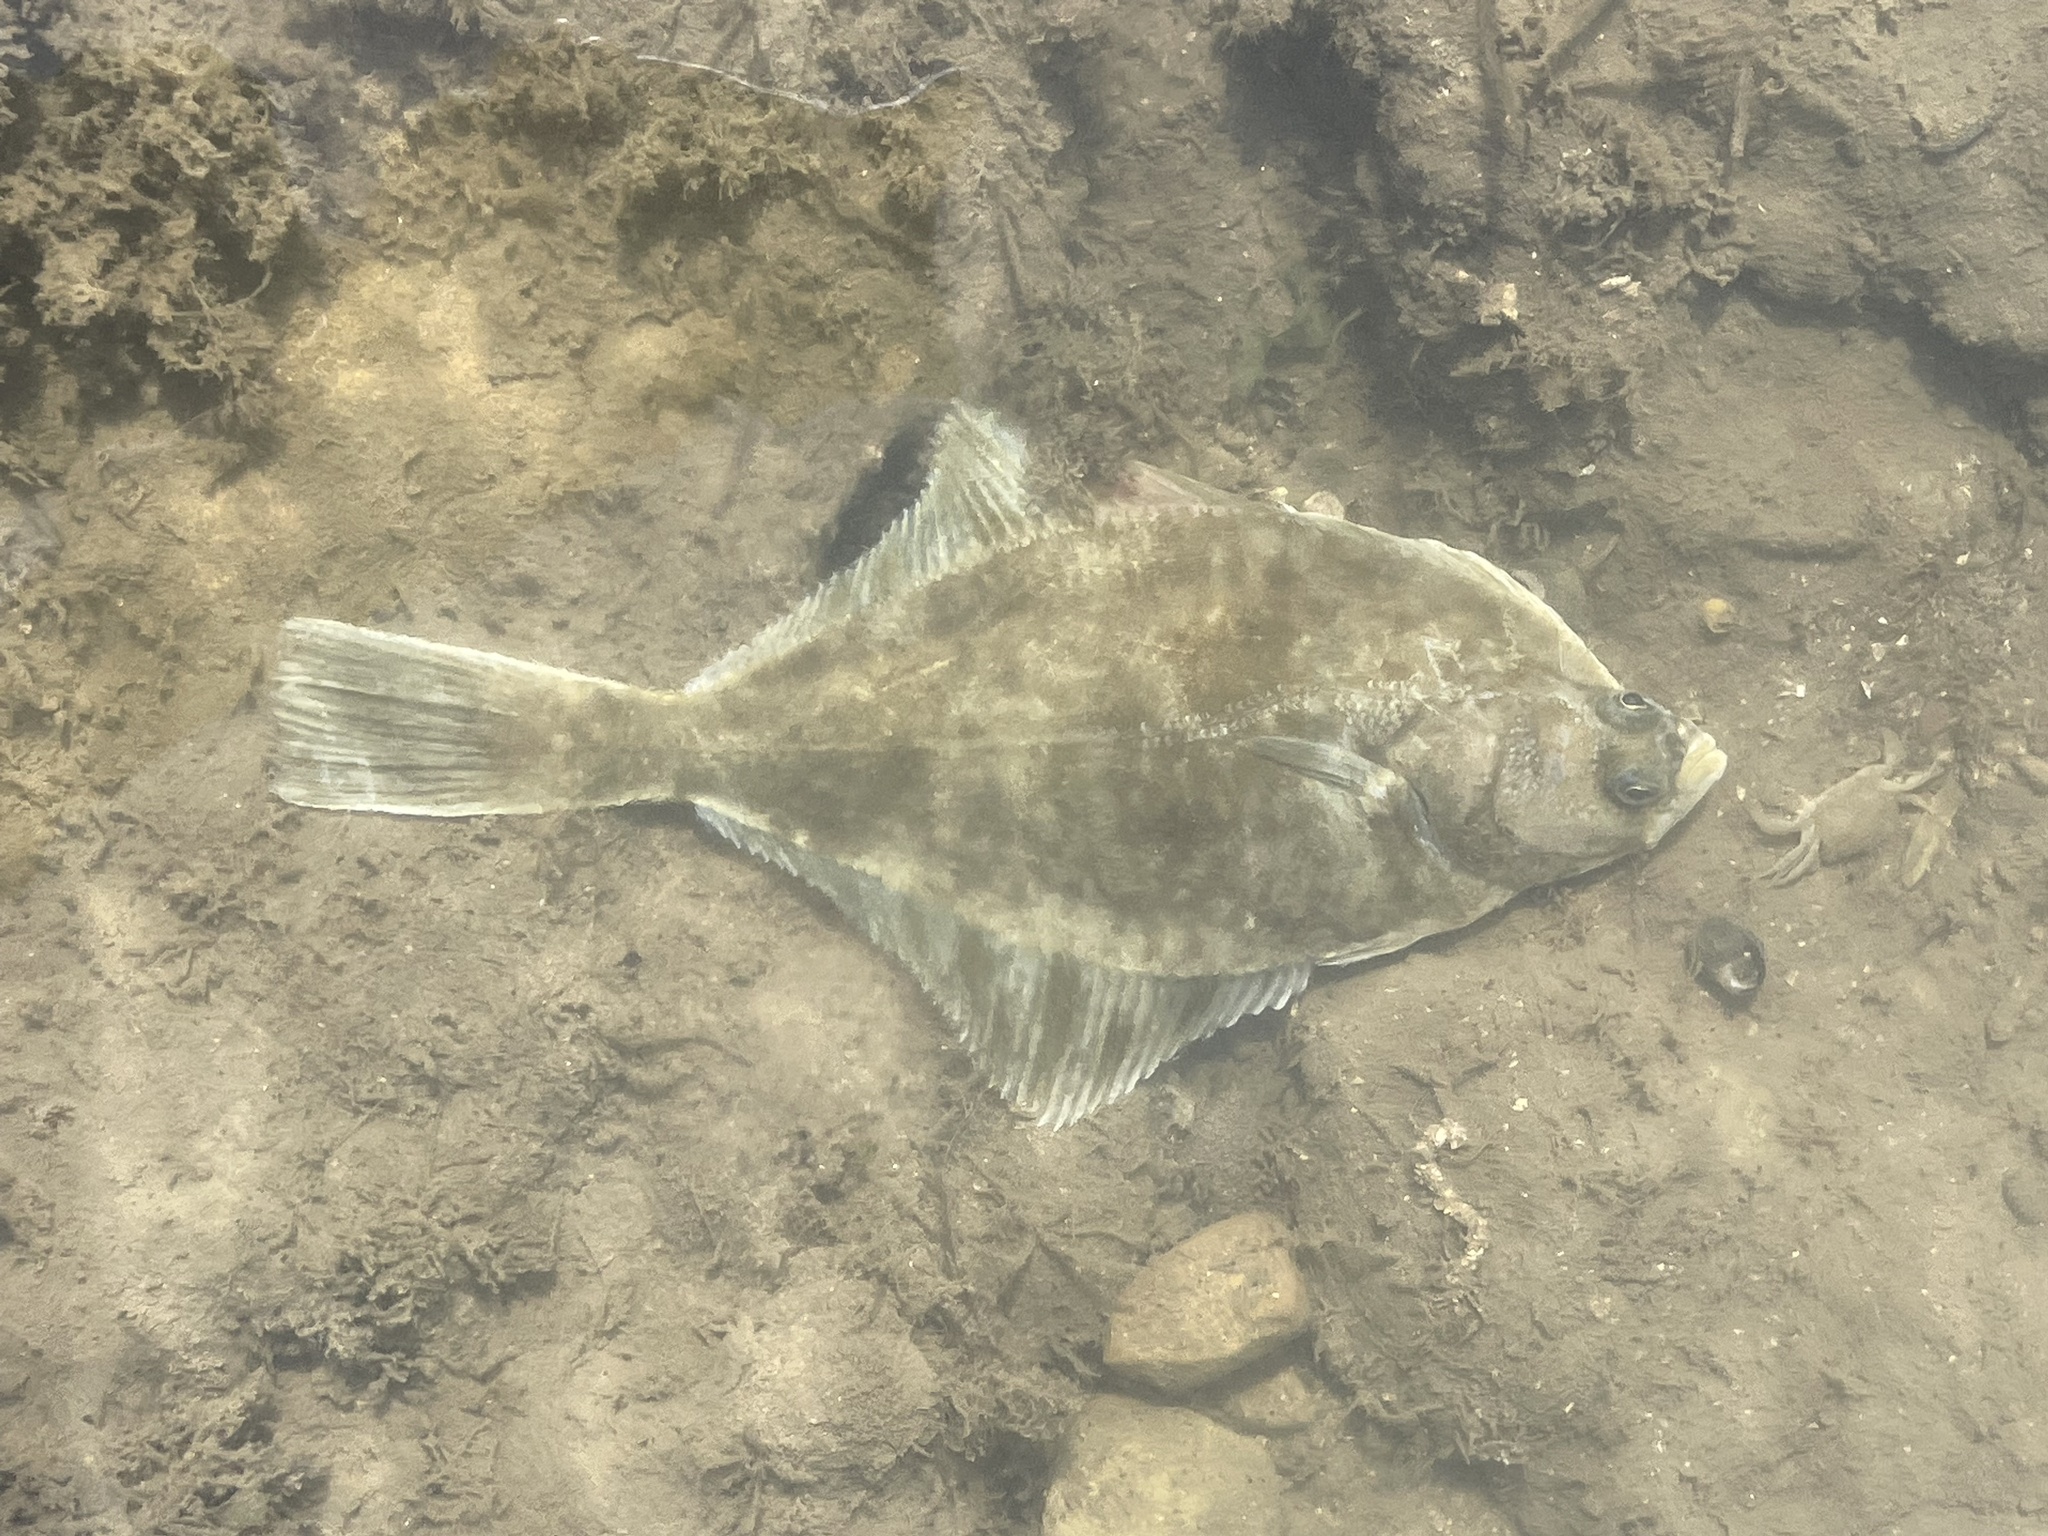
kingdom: Animalia
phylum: Chordata
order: Pleuronectiformes
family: Pleuronectidae
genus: Platichthys
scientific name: Platichthys flesus
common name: European flounder
